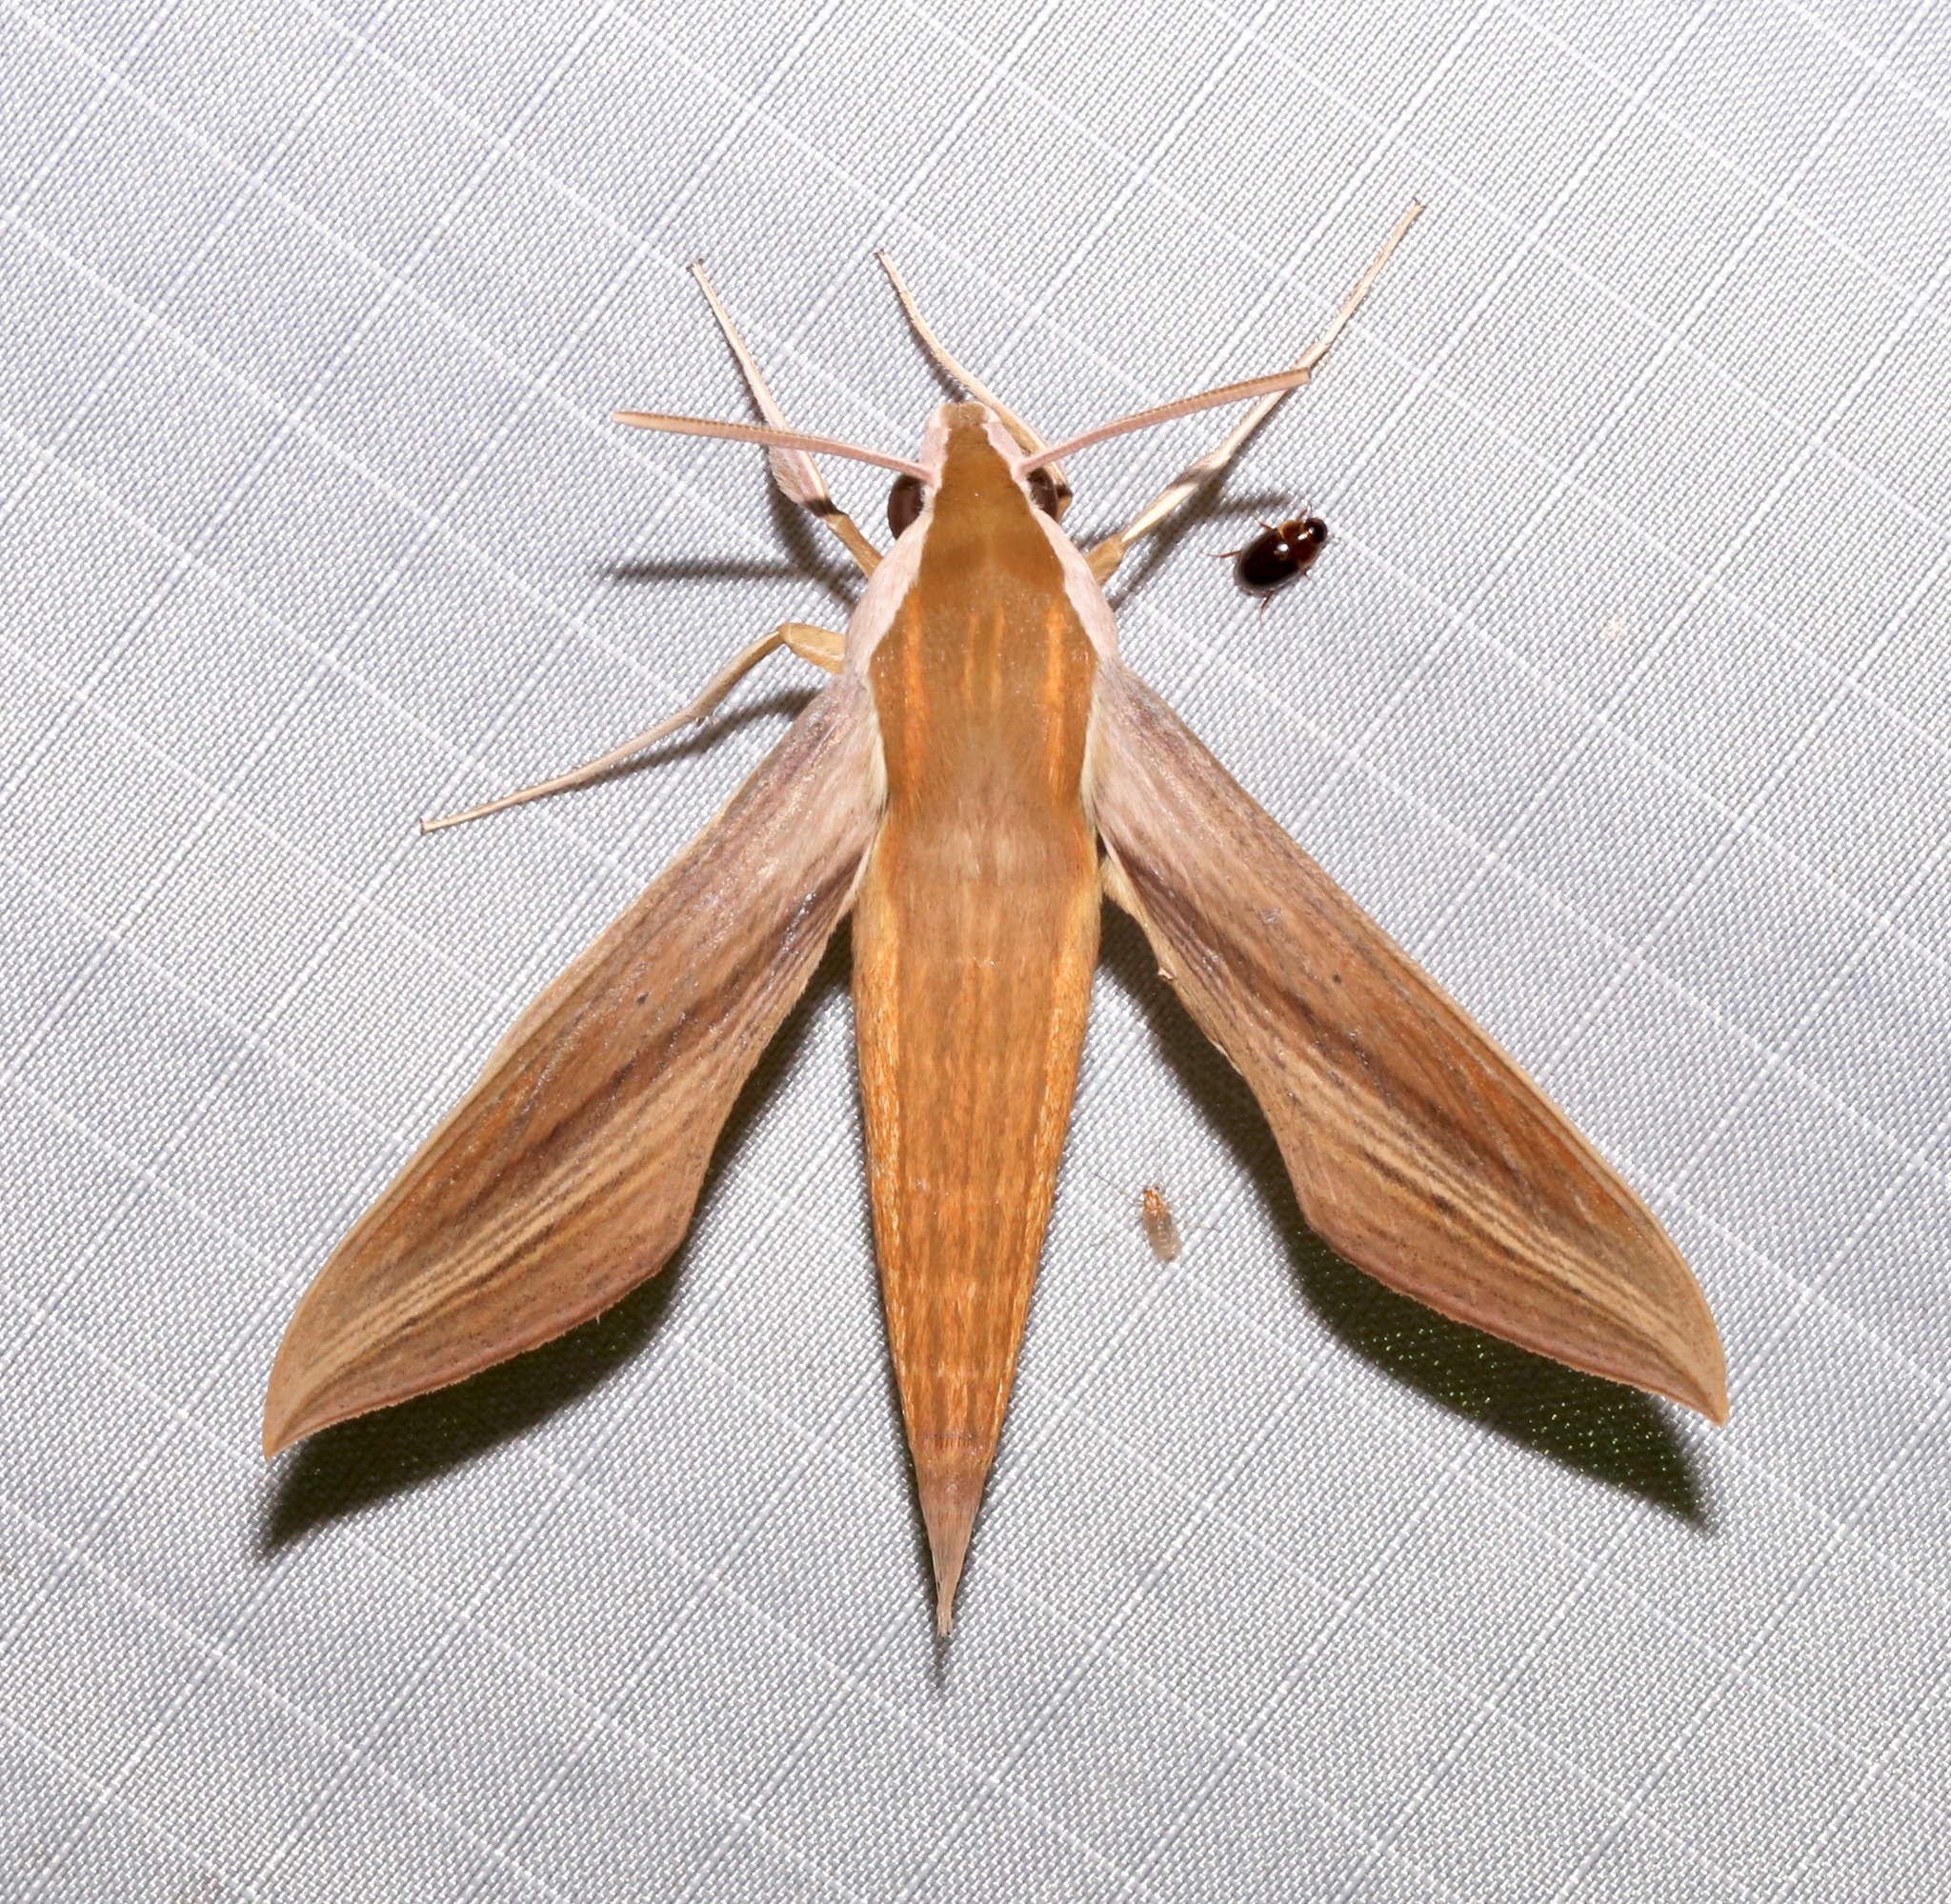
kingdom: Animalia
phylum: Arthropoda
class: Insecta
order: Lepidoptera
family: Sphingidae
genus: Xylophanes
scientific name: Xylophanes tersa
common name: Tersa sphinx
